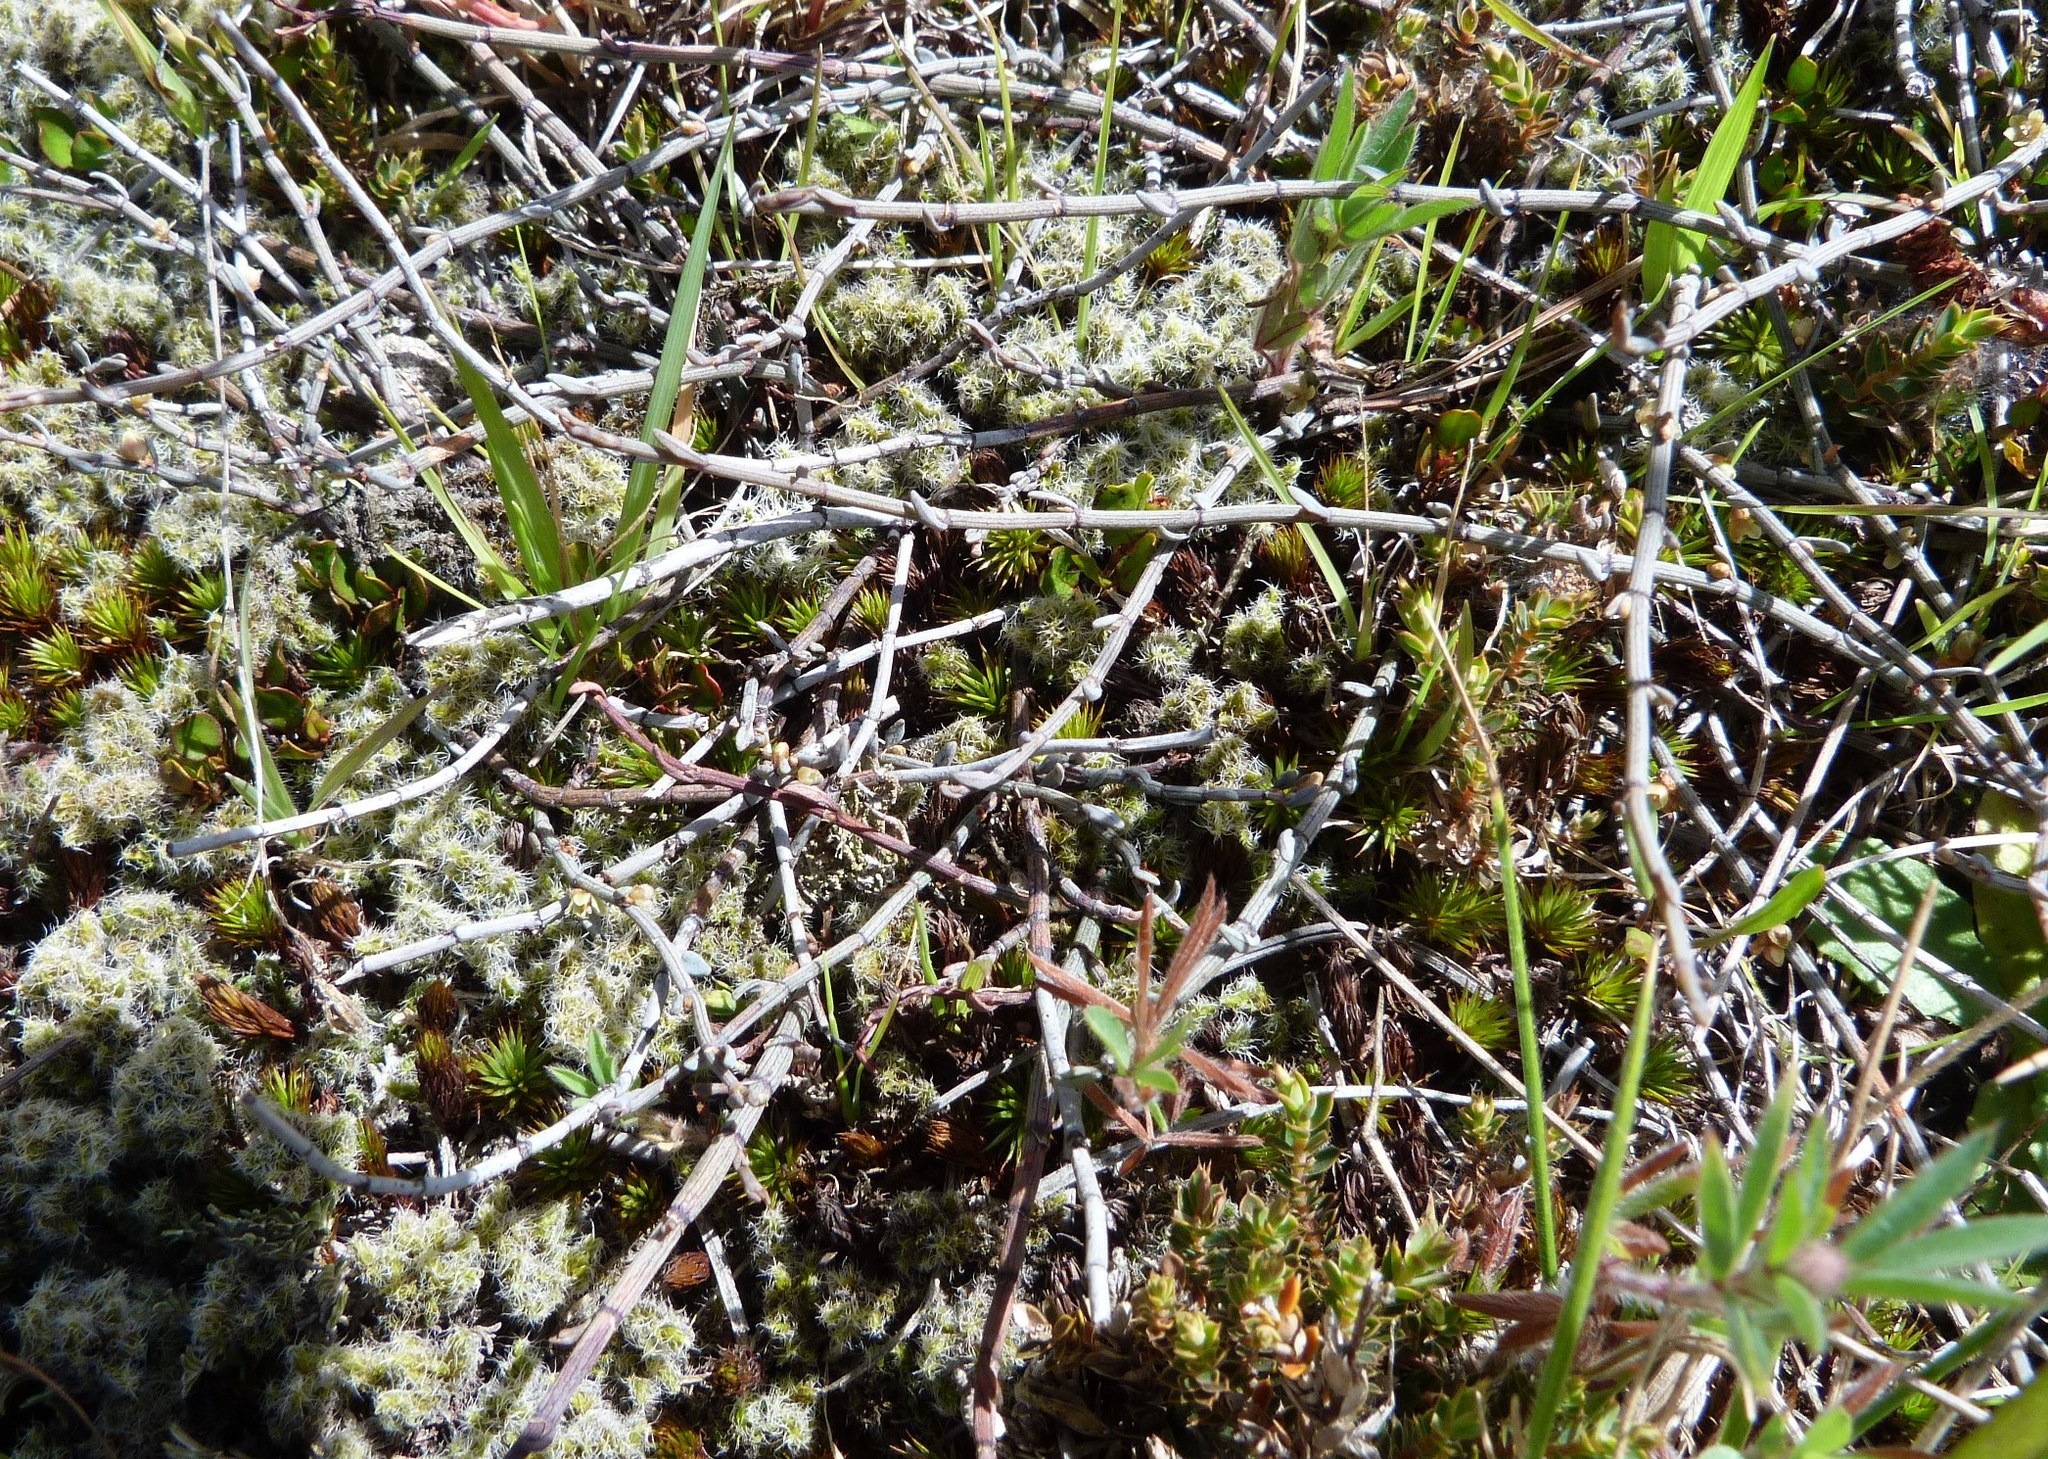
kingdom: Plantae
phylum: Tracheophyta
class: Magnoliopsida
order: Caryophyllales
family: Polygonaceae
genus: Muehlenbeckia
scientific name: Muehlenbeckia ephedroides
